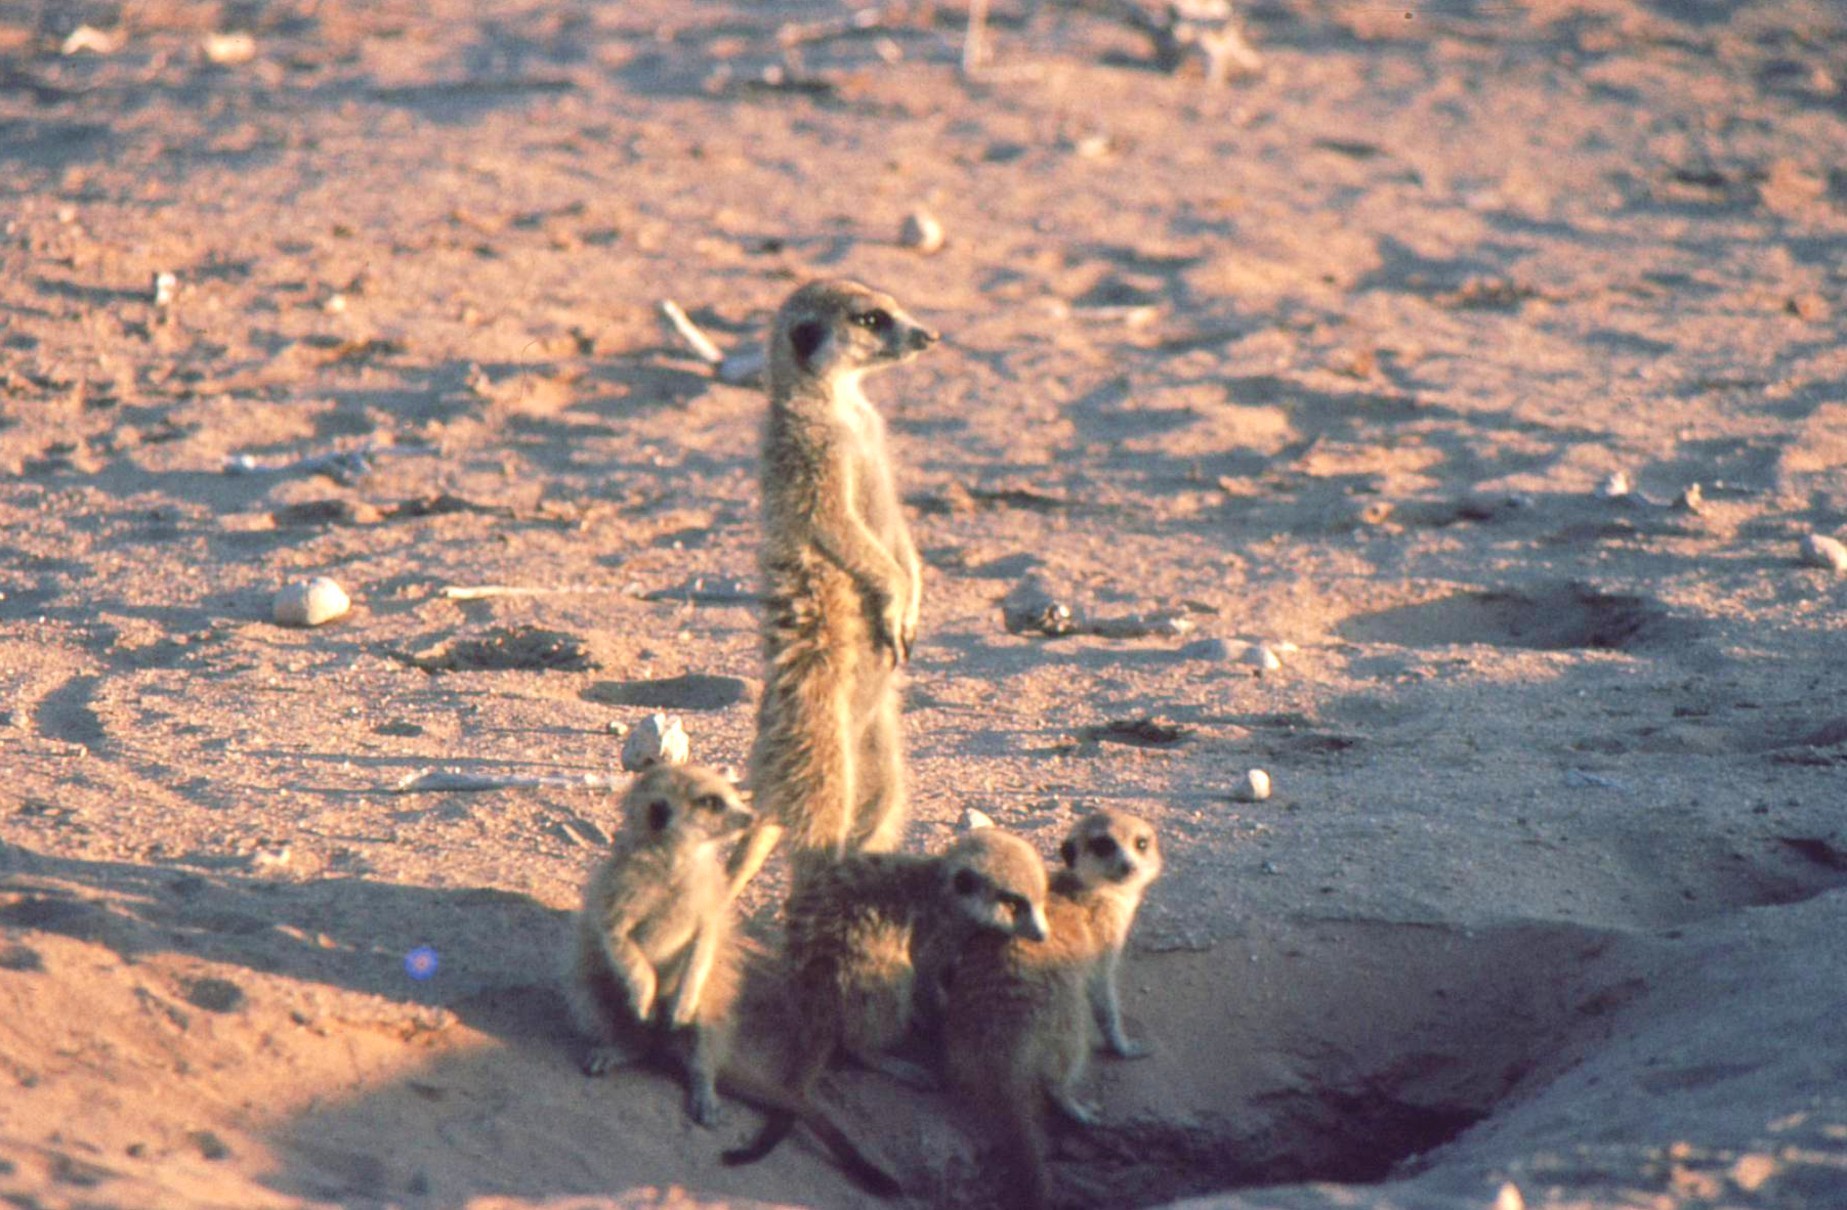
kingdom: Animalia
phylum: Chordata
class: Mammalia
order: Carnivora
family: Herpestidae
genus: Suricata
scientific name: Suricata suricatta
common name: Meerkat
